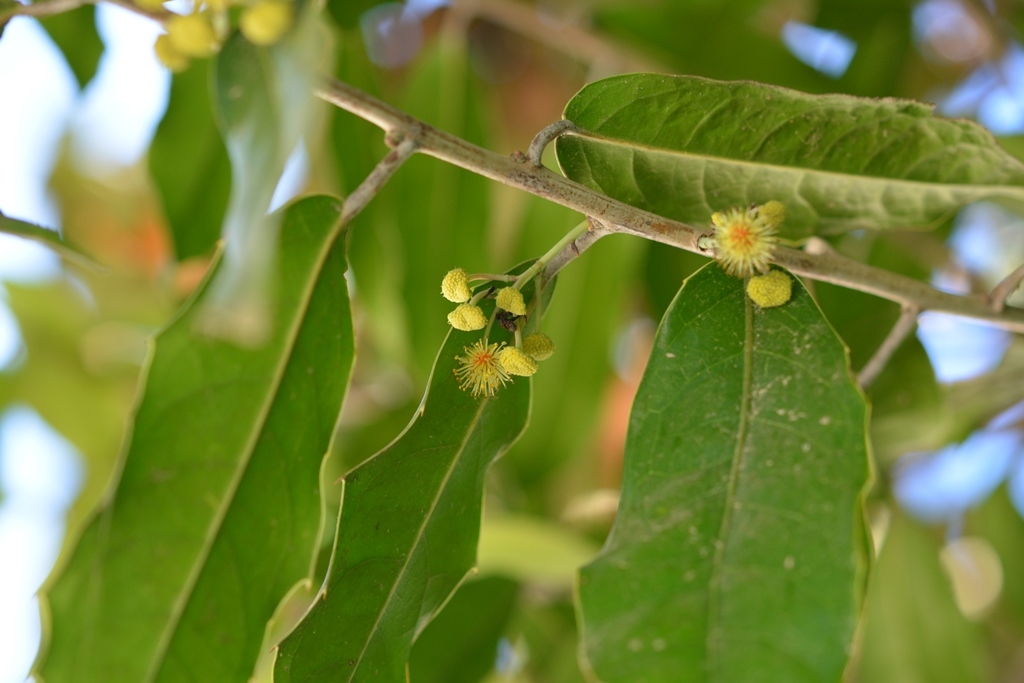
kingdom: Plantae
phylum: Tracheophyta
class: Magnoliopsida
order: Malpighiales
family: Salicaceae
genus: Olmediella
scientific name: Olmediella betschleriana
